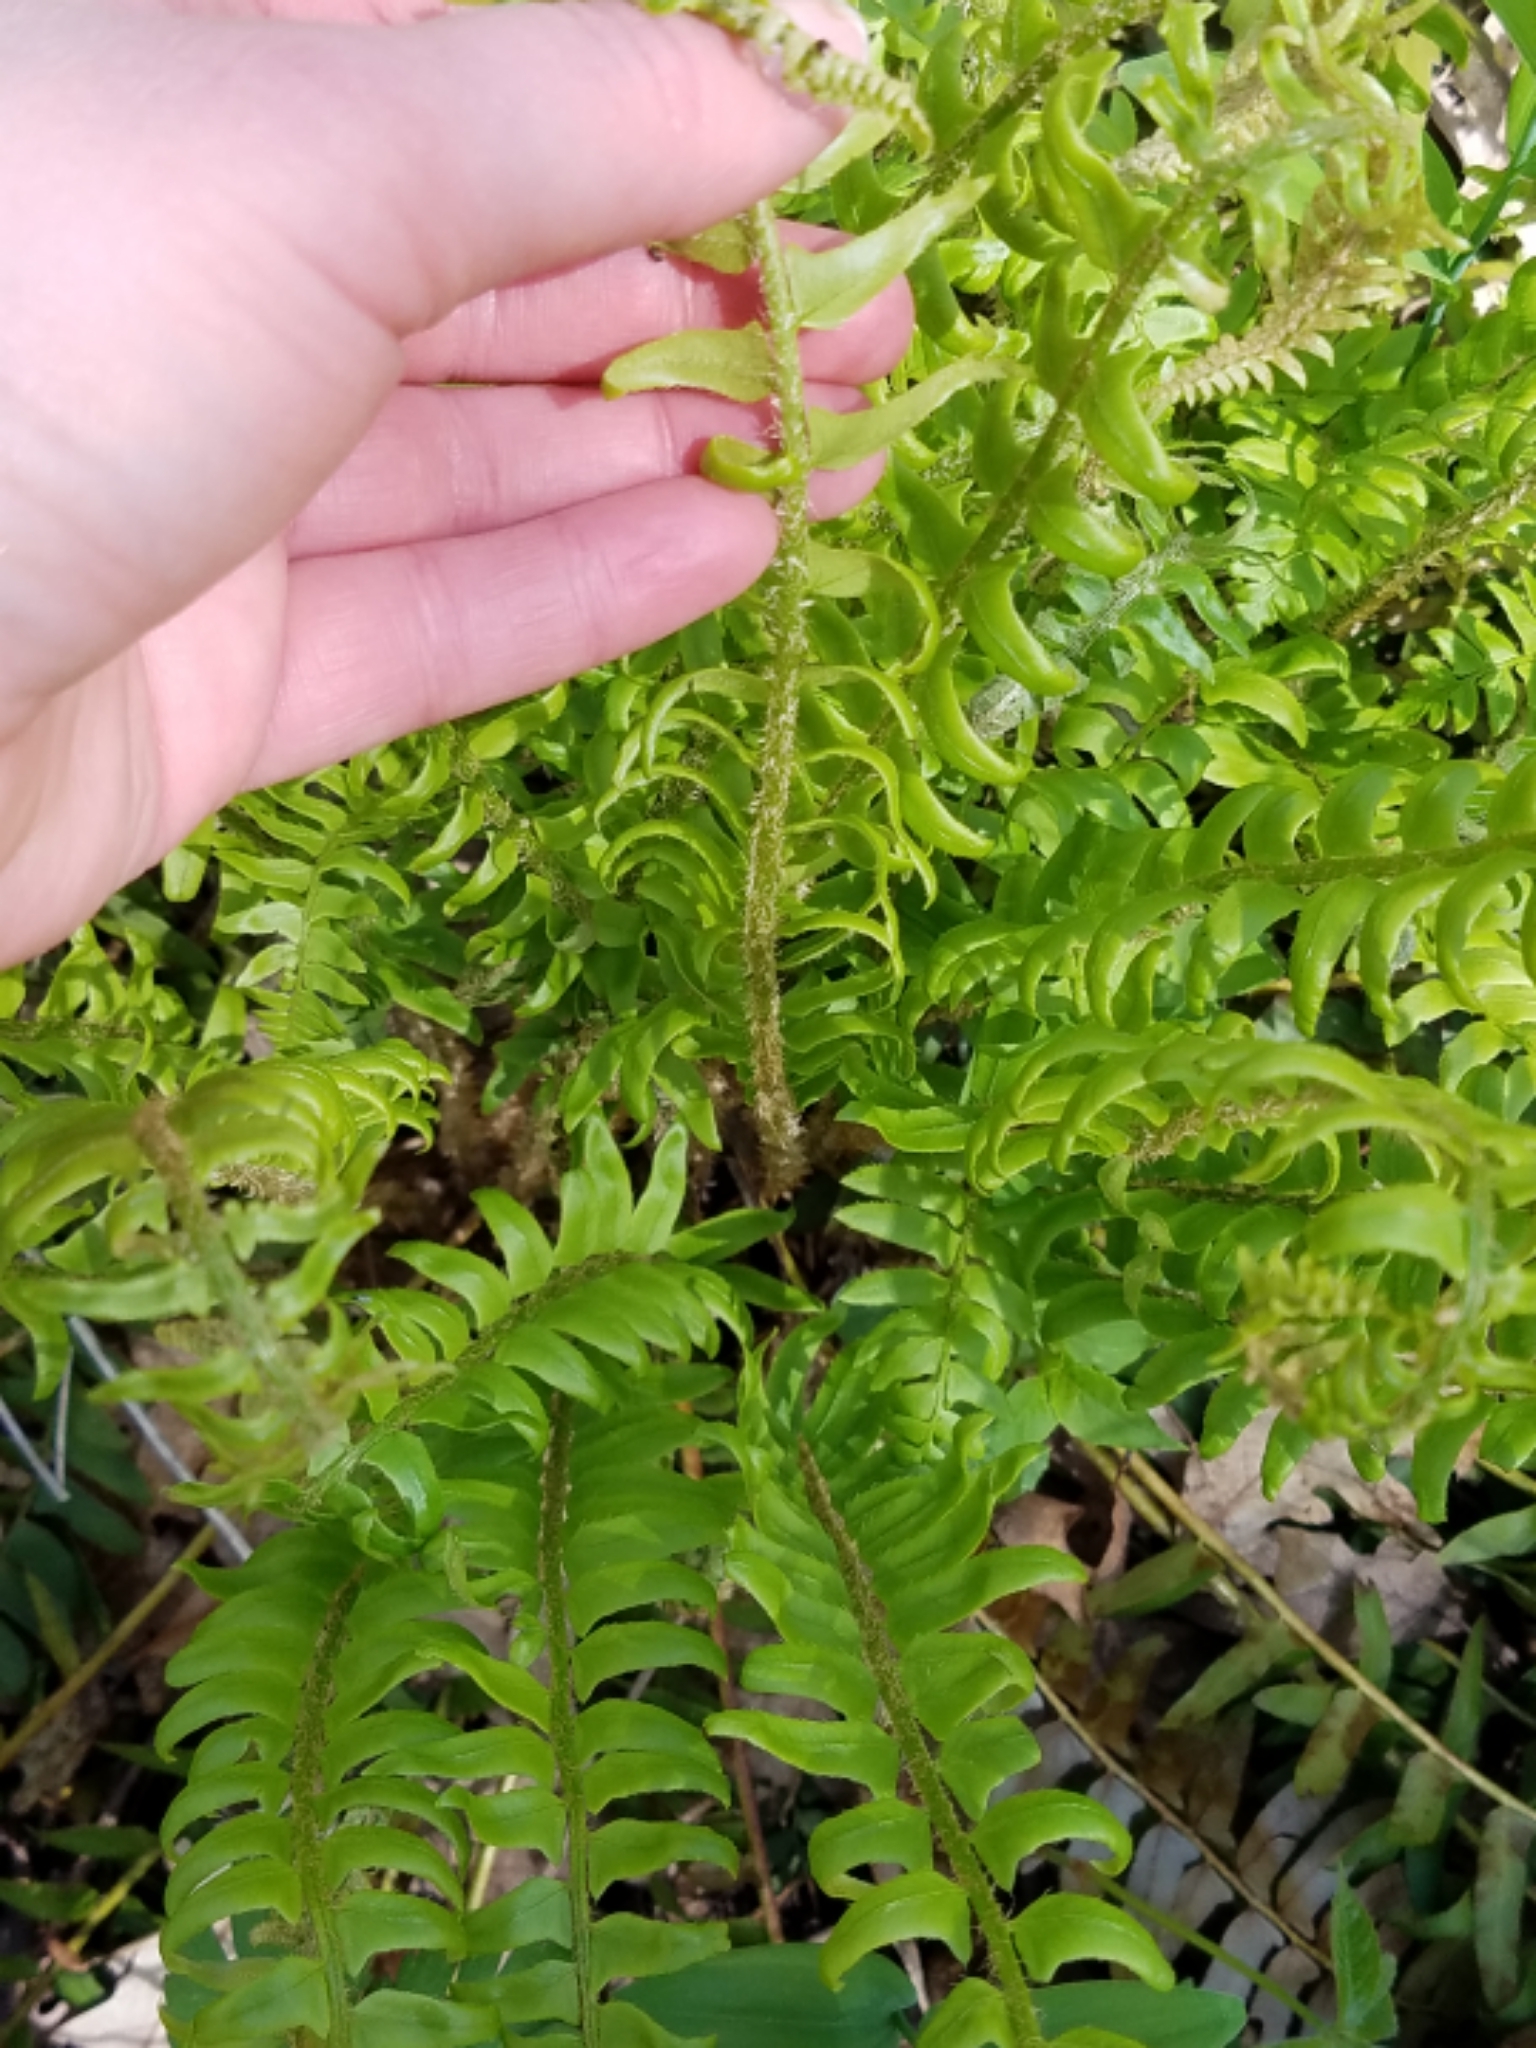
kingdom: Plantae
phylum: Tracheophyta
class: Polypodiopsida
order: Polypodiales
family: Dryopteridaceae
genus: Polystichum
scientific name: Polystichum acrostichoides
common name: Christmas fern
